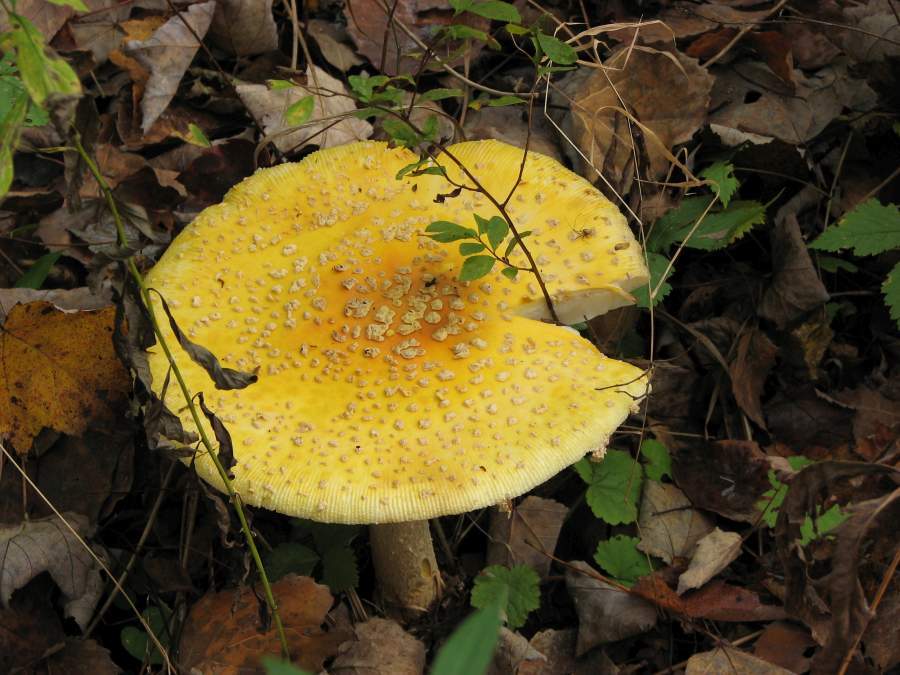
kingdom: Fungi
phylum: Basidiomycota
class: Agaricomycetes
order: Agaricales
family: Amanitaceae
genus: Amanita
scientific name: Amanita muscaria
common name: Fly agaric
